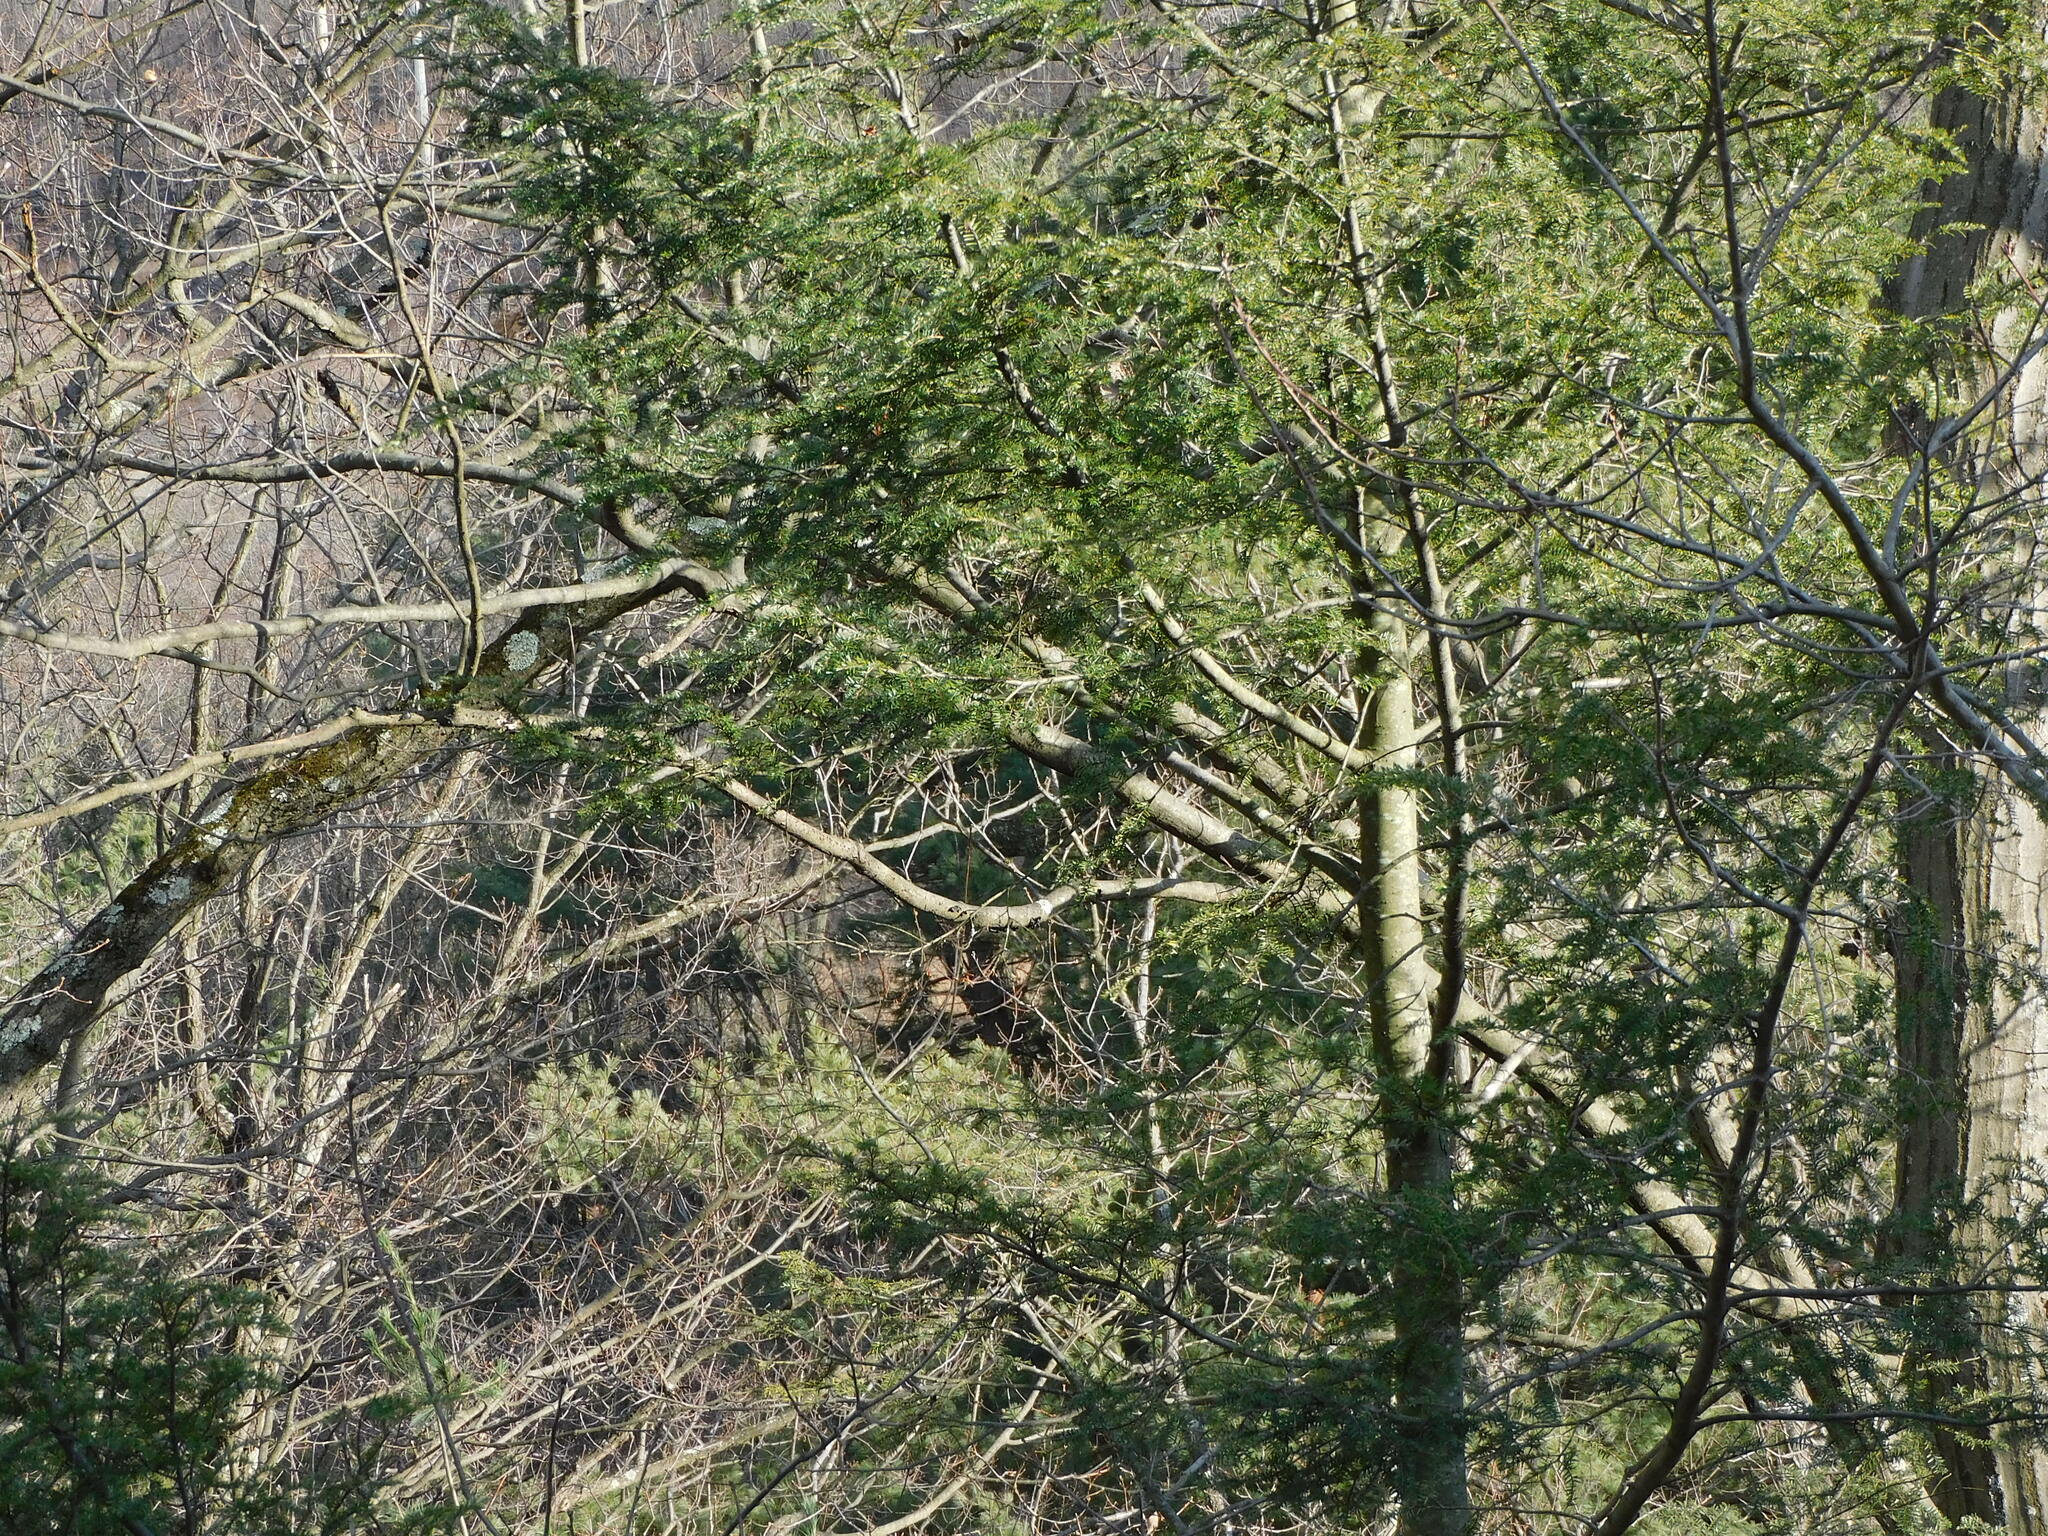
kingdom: Plantae
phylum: Tracheophyta
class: Pinopsida
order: Pinales
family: Pinaceae
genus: Tsuga
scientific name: Tsuga canadensis
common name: Eastern hemlock
